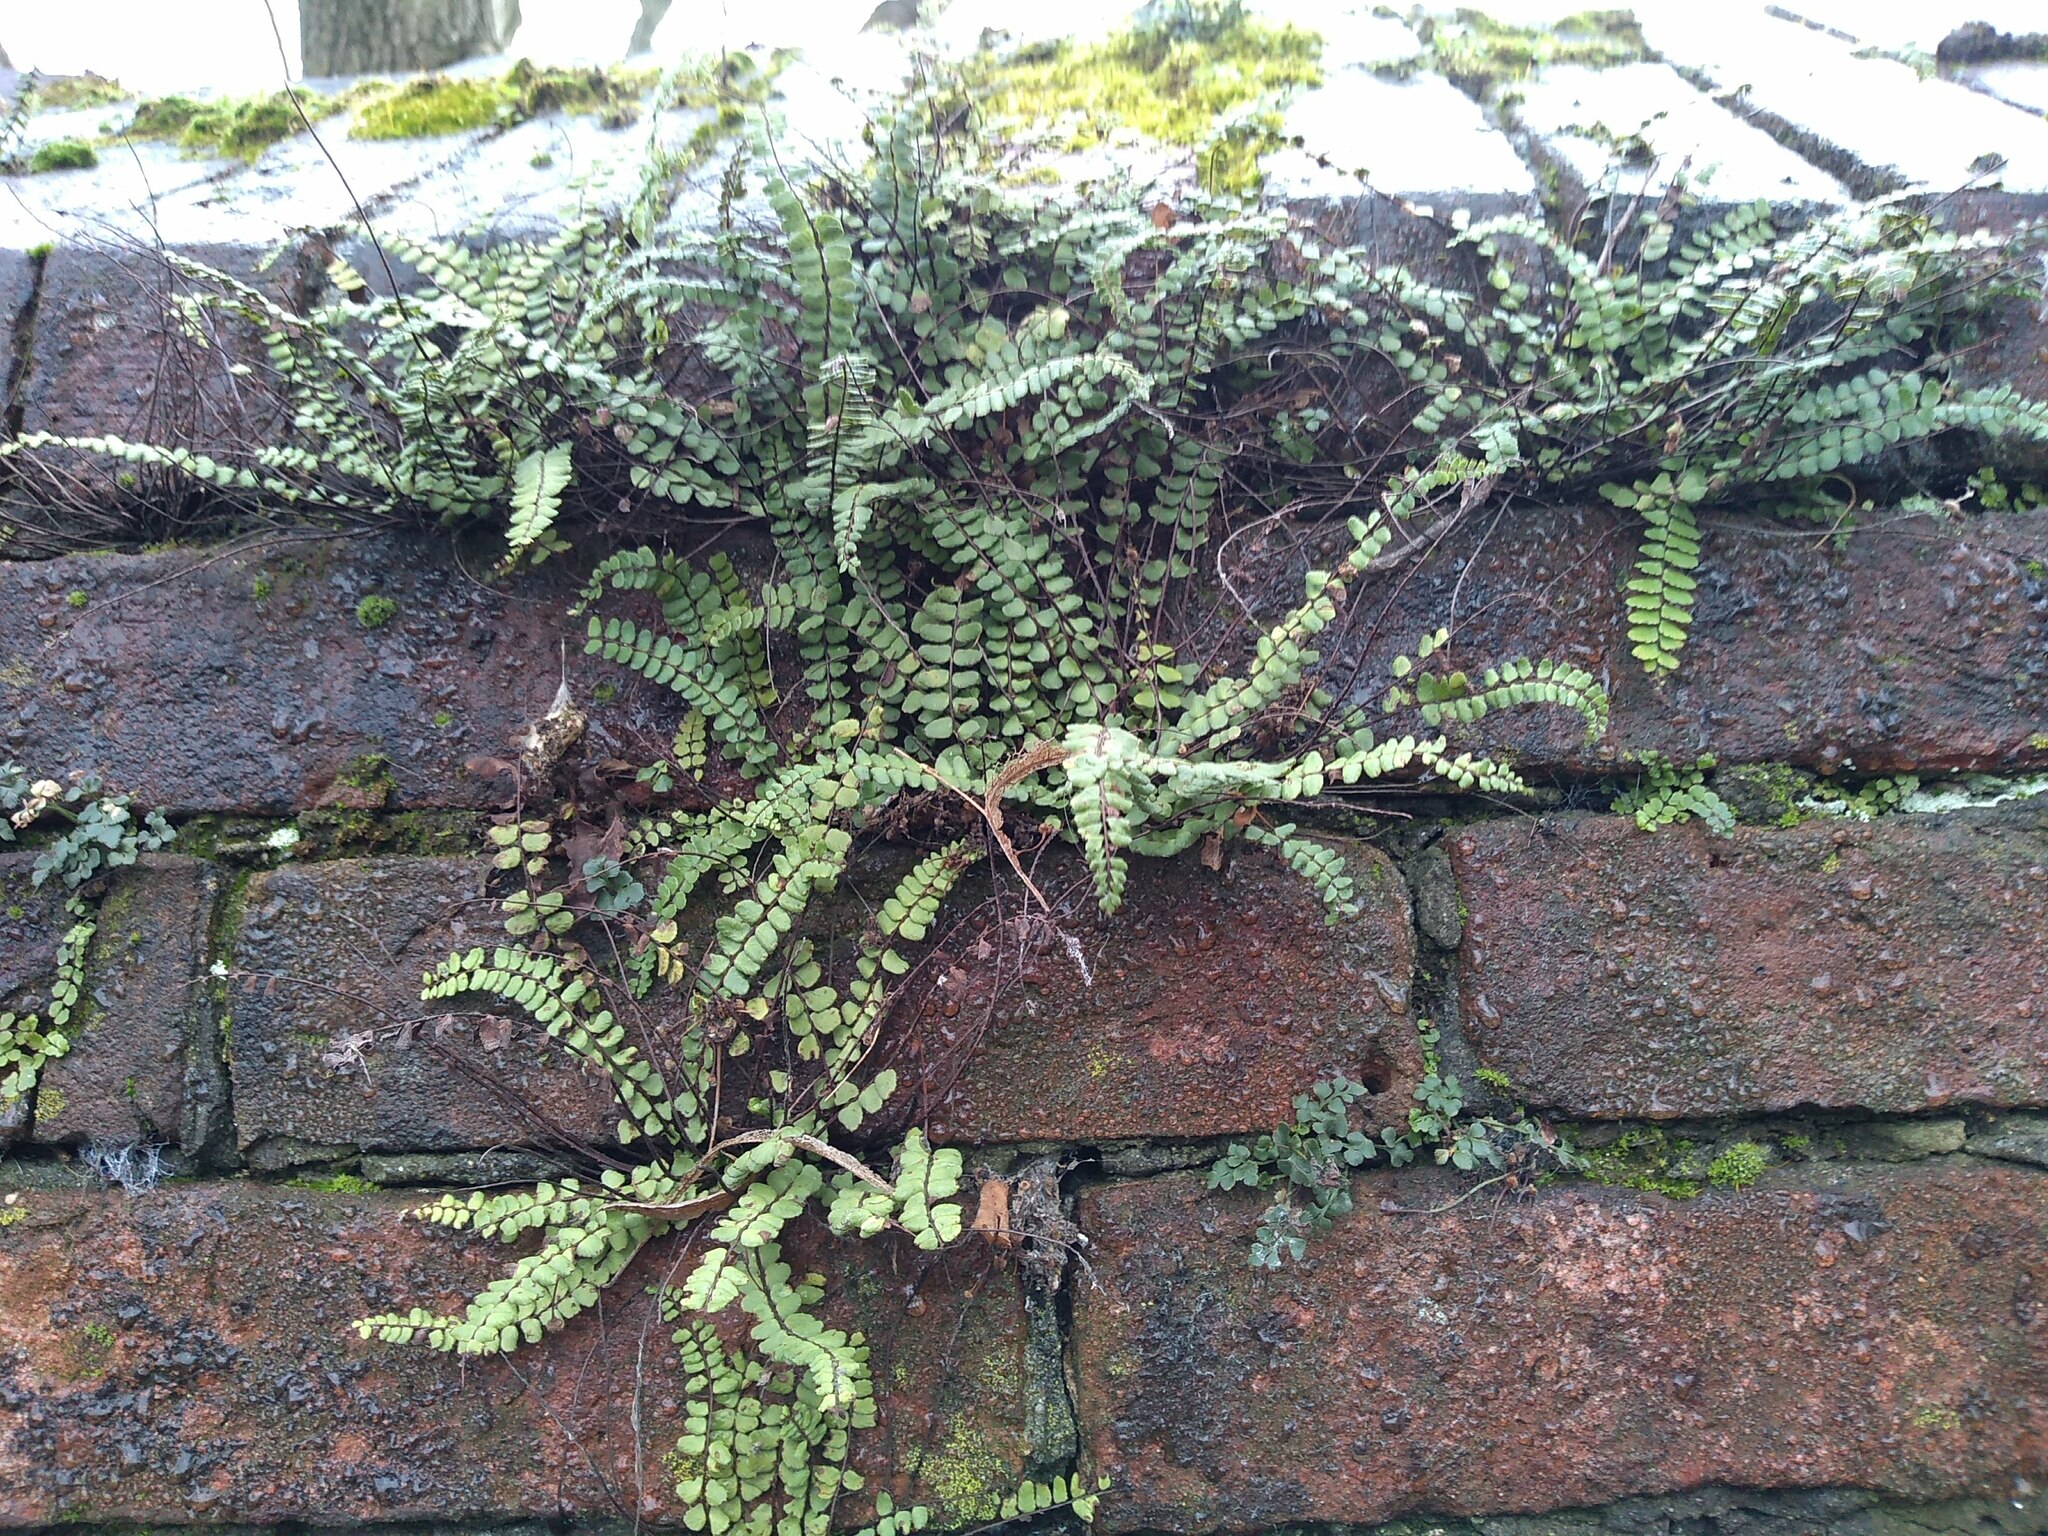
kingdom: Plantae
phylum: Tracheophyta
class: Polypodiopsida
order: Polypodiales
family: Aspleniaceae
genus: Asplenium
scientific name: Asplenium trichomanes
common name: Maidenhair spleenwort
